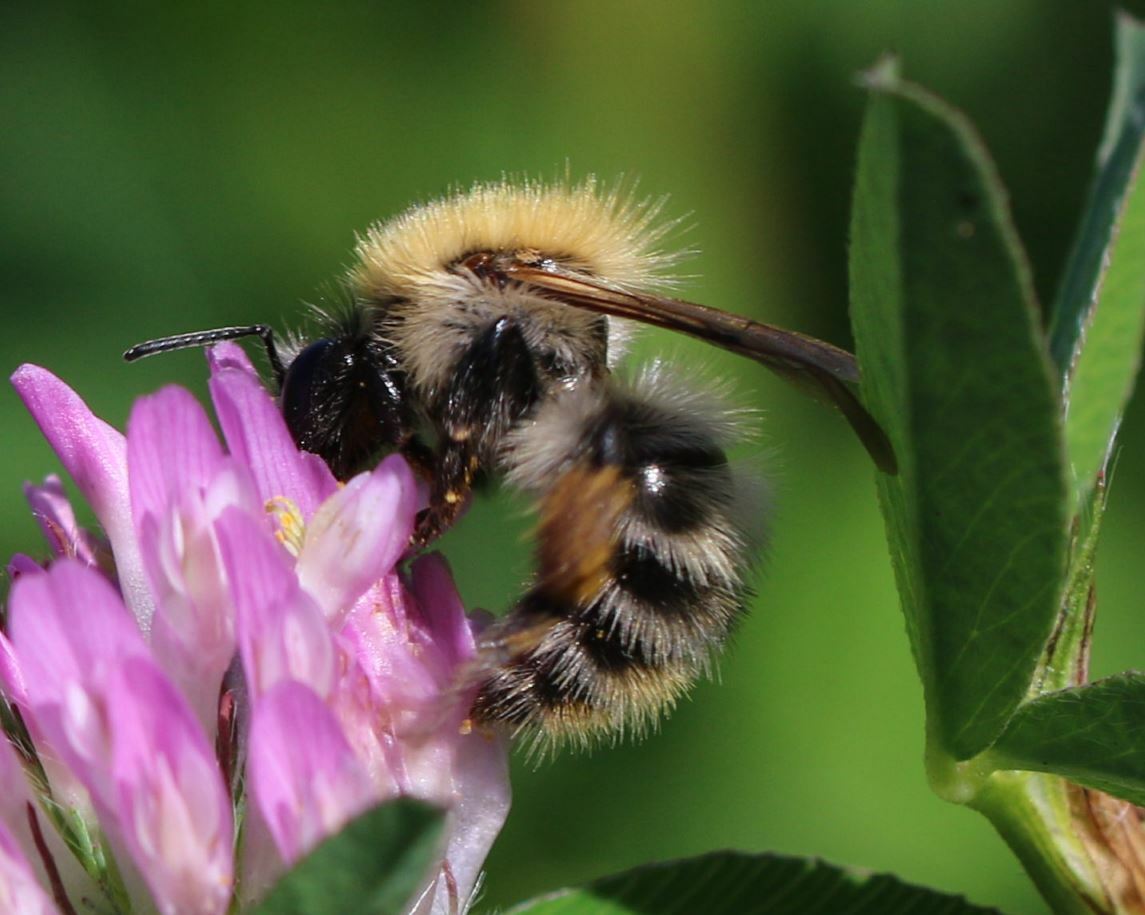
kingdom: Animalia
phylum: Arthropoda
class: Insecta
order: Hymenoptera
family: Apidae
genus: Bombus
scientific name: Bombus pascuorum
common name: Common carder bee
